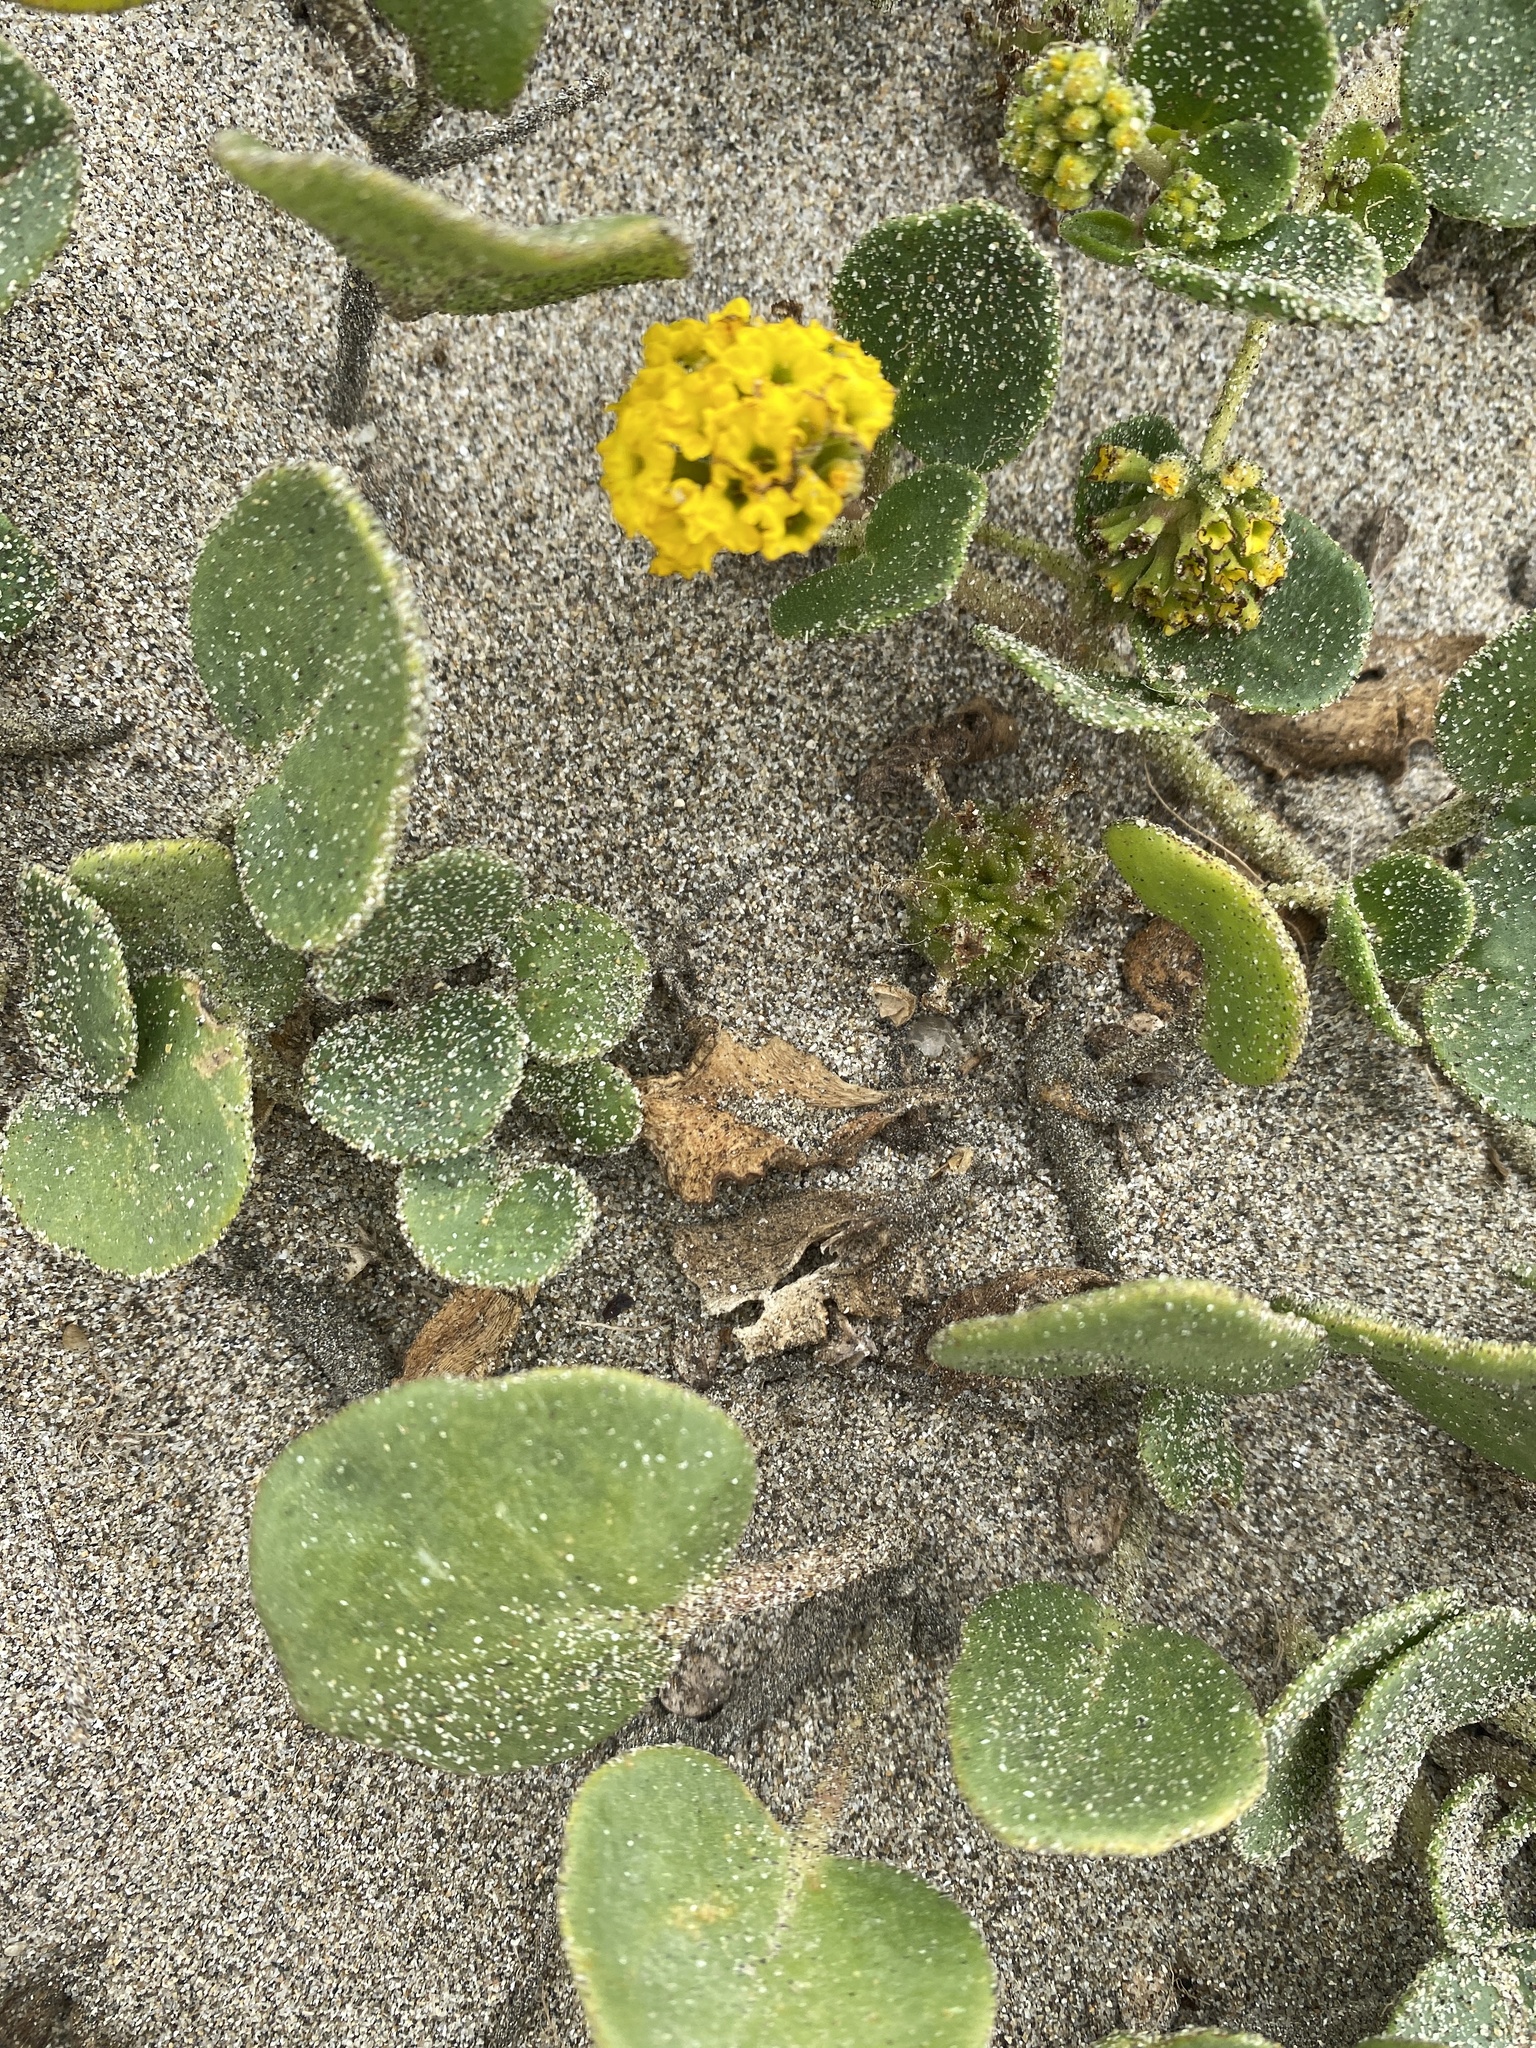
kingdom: Plantae
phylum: Tracheophyta
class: Magnoliopsida
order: Caryophyllales
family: Nyctaginaceae
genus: Abronia
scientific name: Abronia latifolia
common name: Yellow sand-verbena
